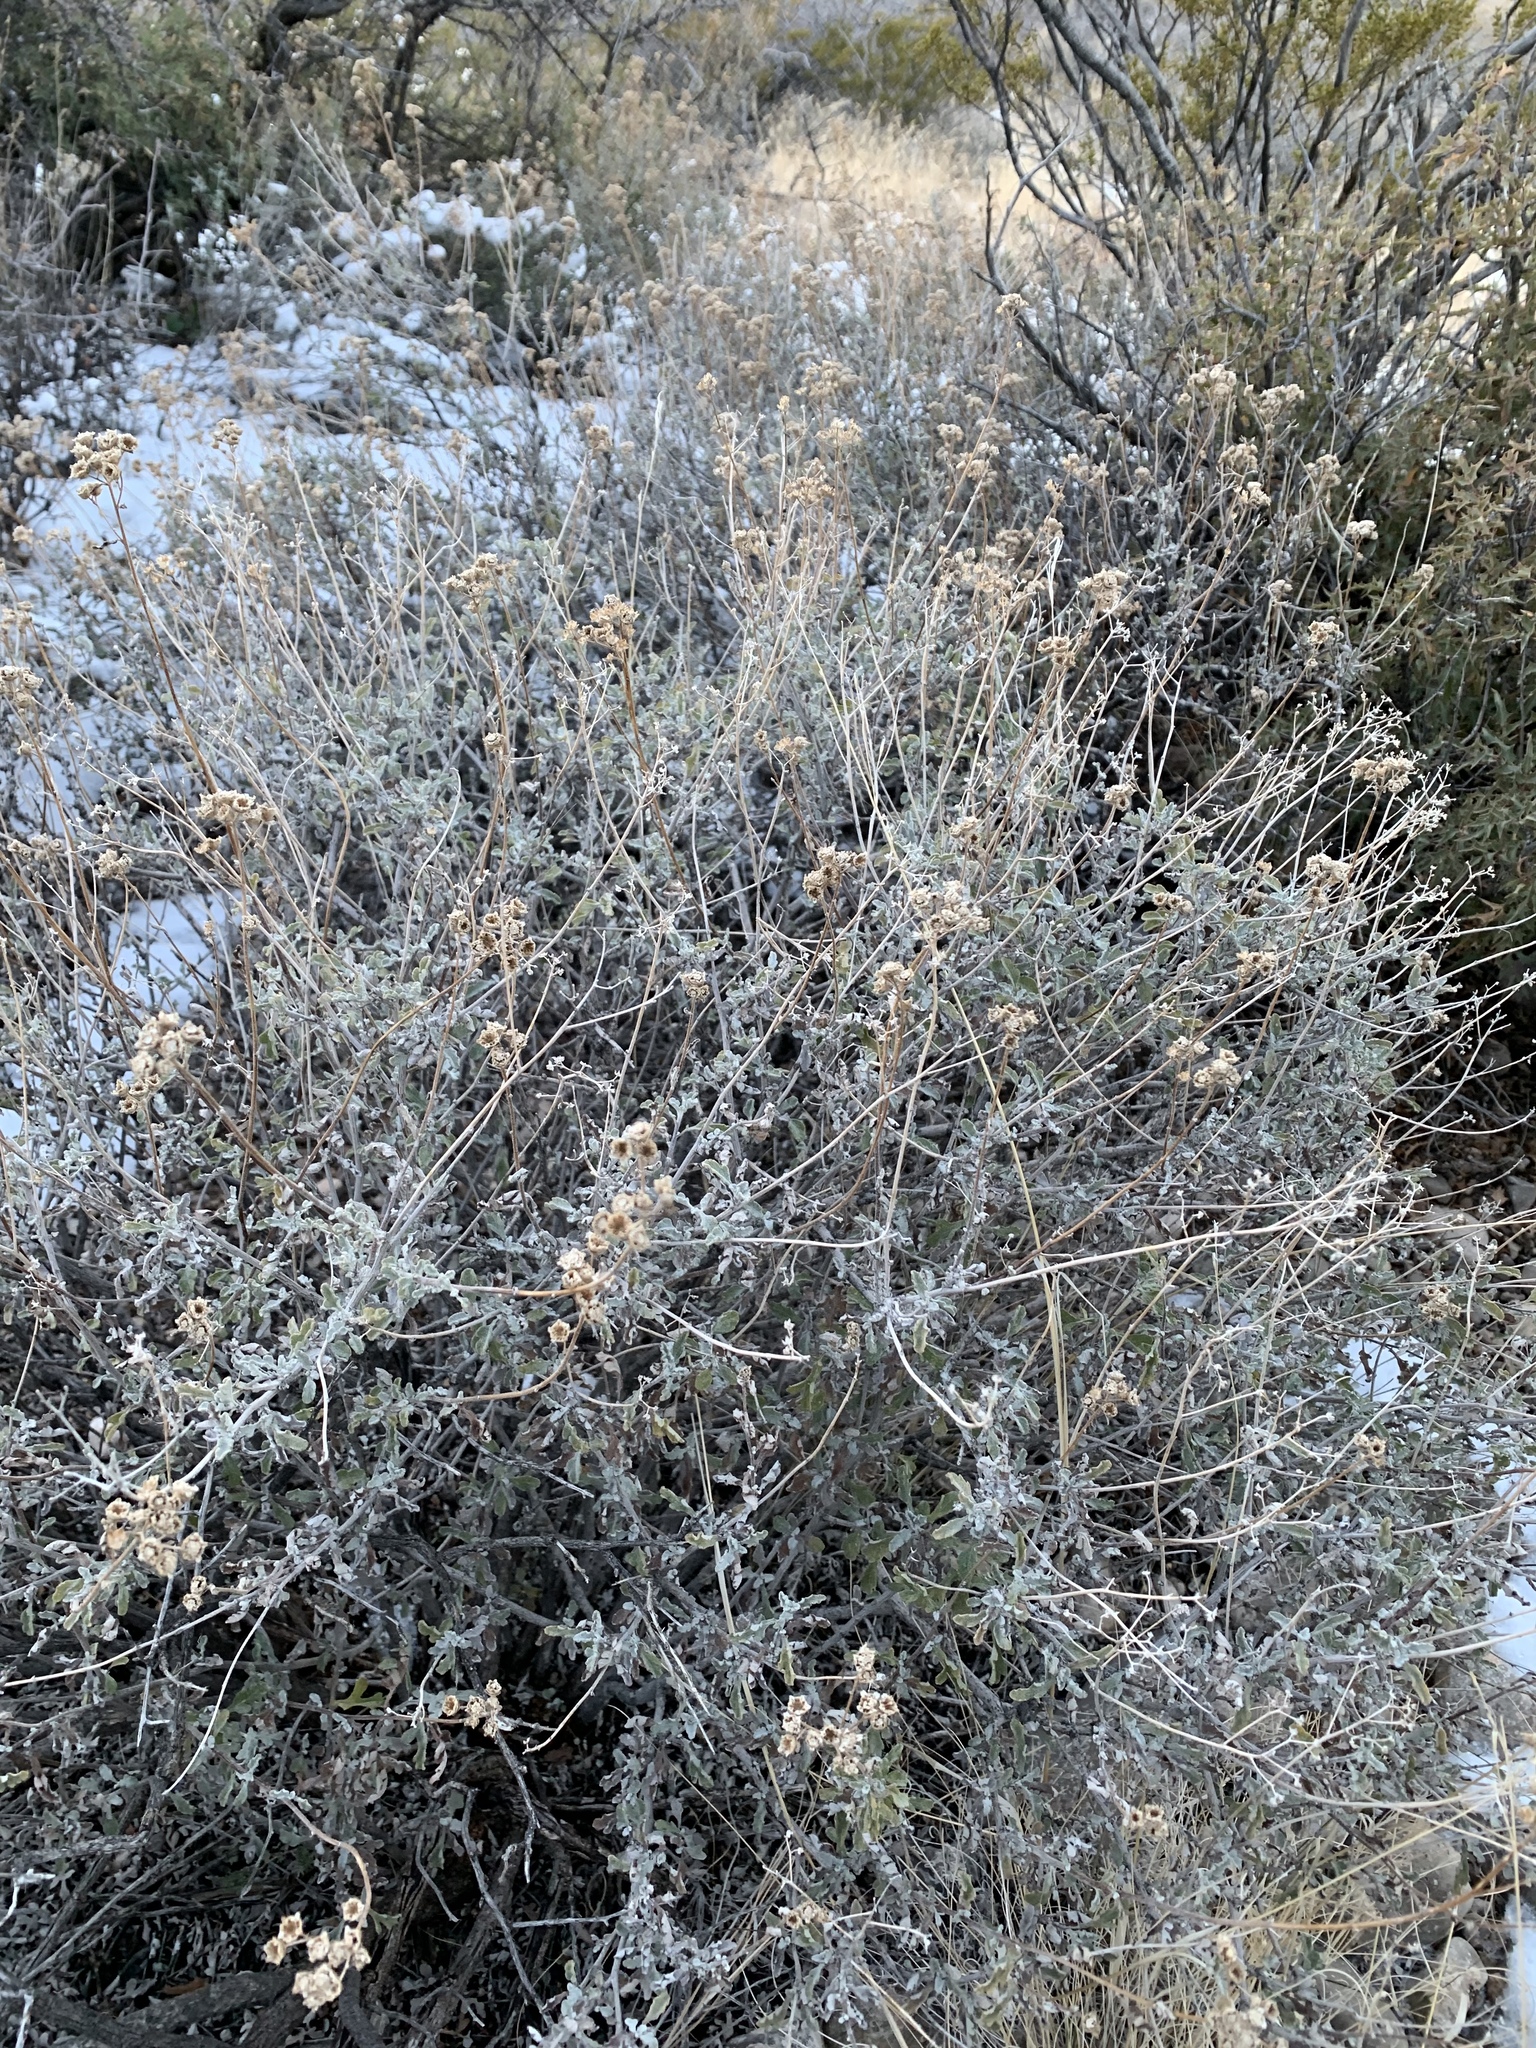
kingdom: Plantae
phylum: Tracheophyta
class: Magnoliopsida
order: Asterales
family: Asteraceae
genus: Parthenium
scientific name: Parthenium incanum
